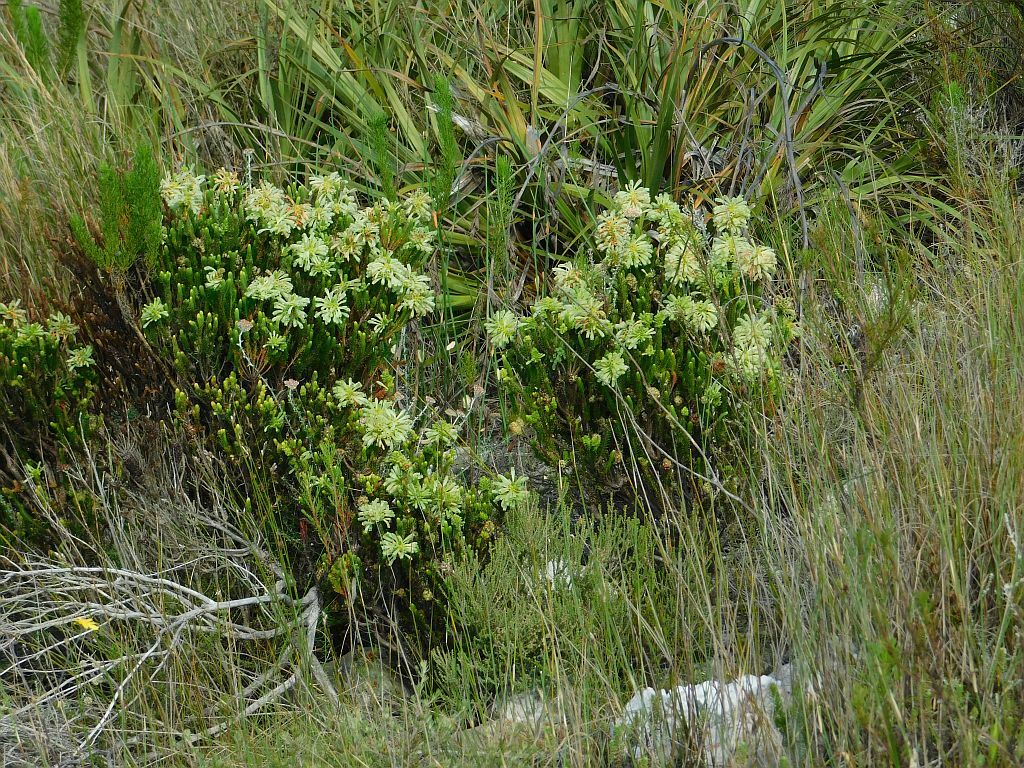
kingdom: Plantae
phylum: Tracheophyta
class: Magnoliopsida
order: Ericales
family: Ericaceae
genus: Erica
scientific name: Erica sessiliflora
